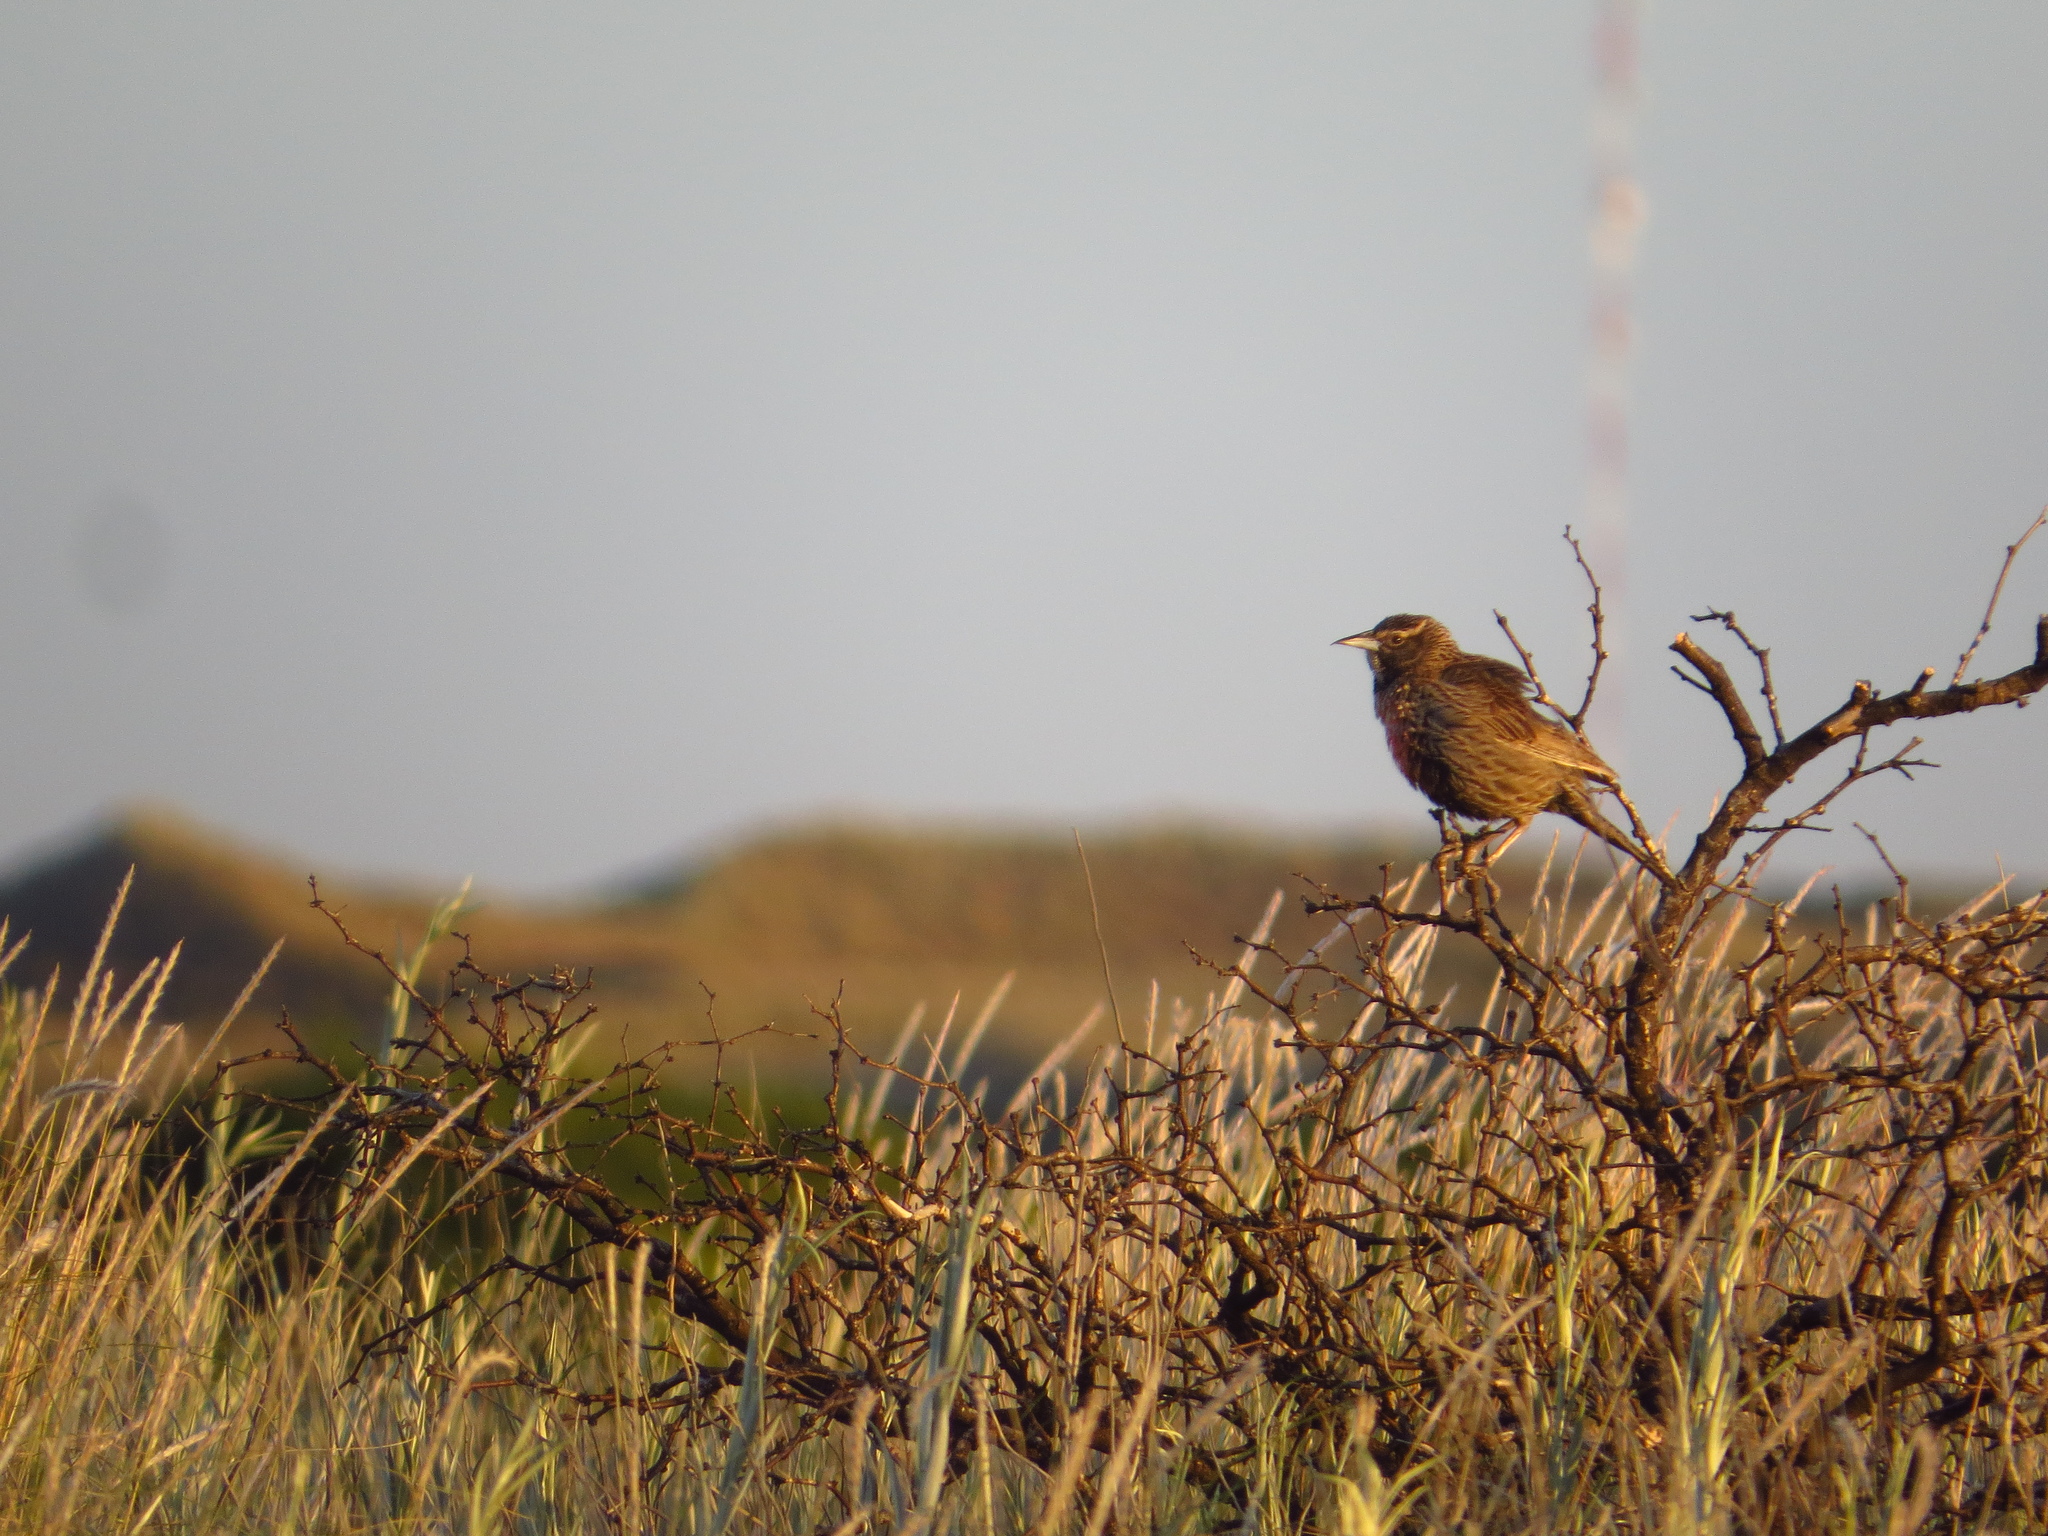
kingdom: Animalia
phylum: Chordata
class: Aves
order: Passeriformes
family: Icteridae
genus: Sturnella
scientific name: Sturnella loyca
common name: Long-tailed meadowlark
